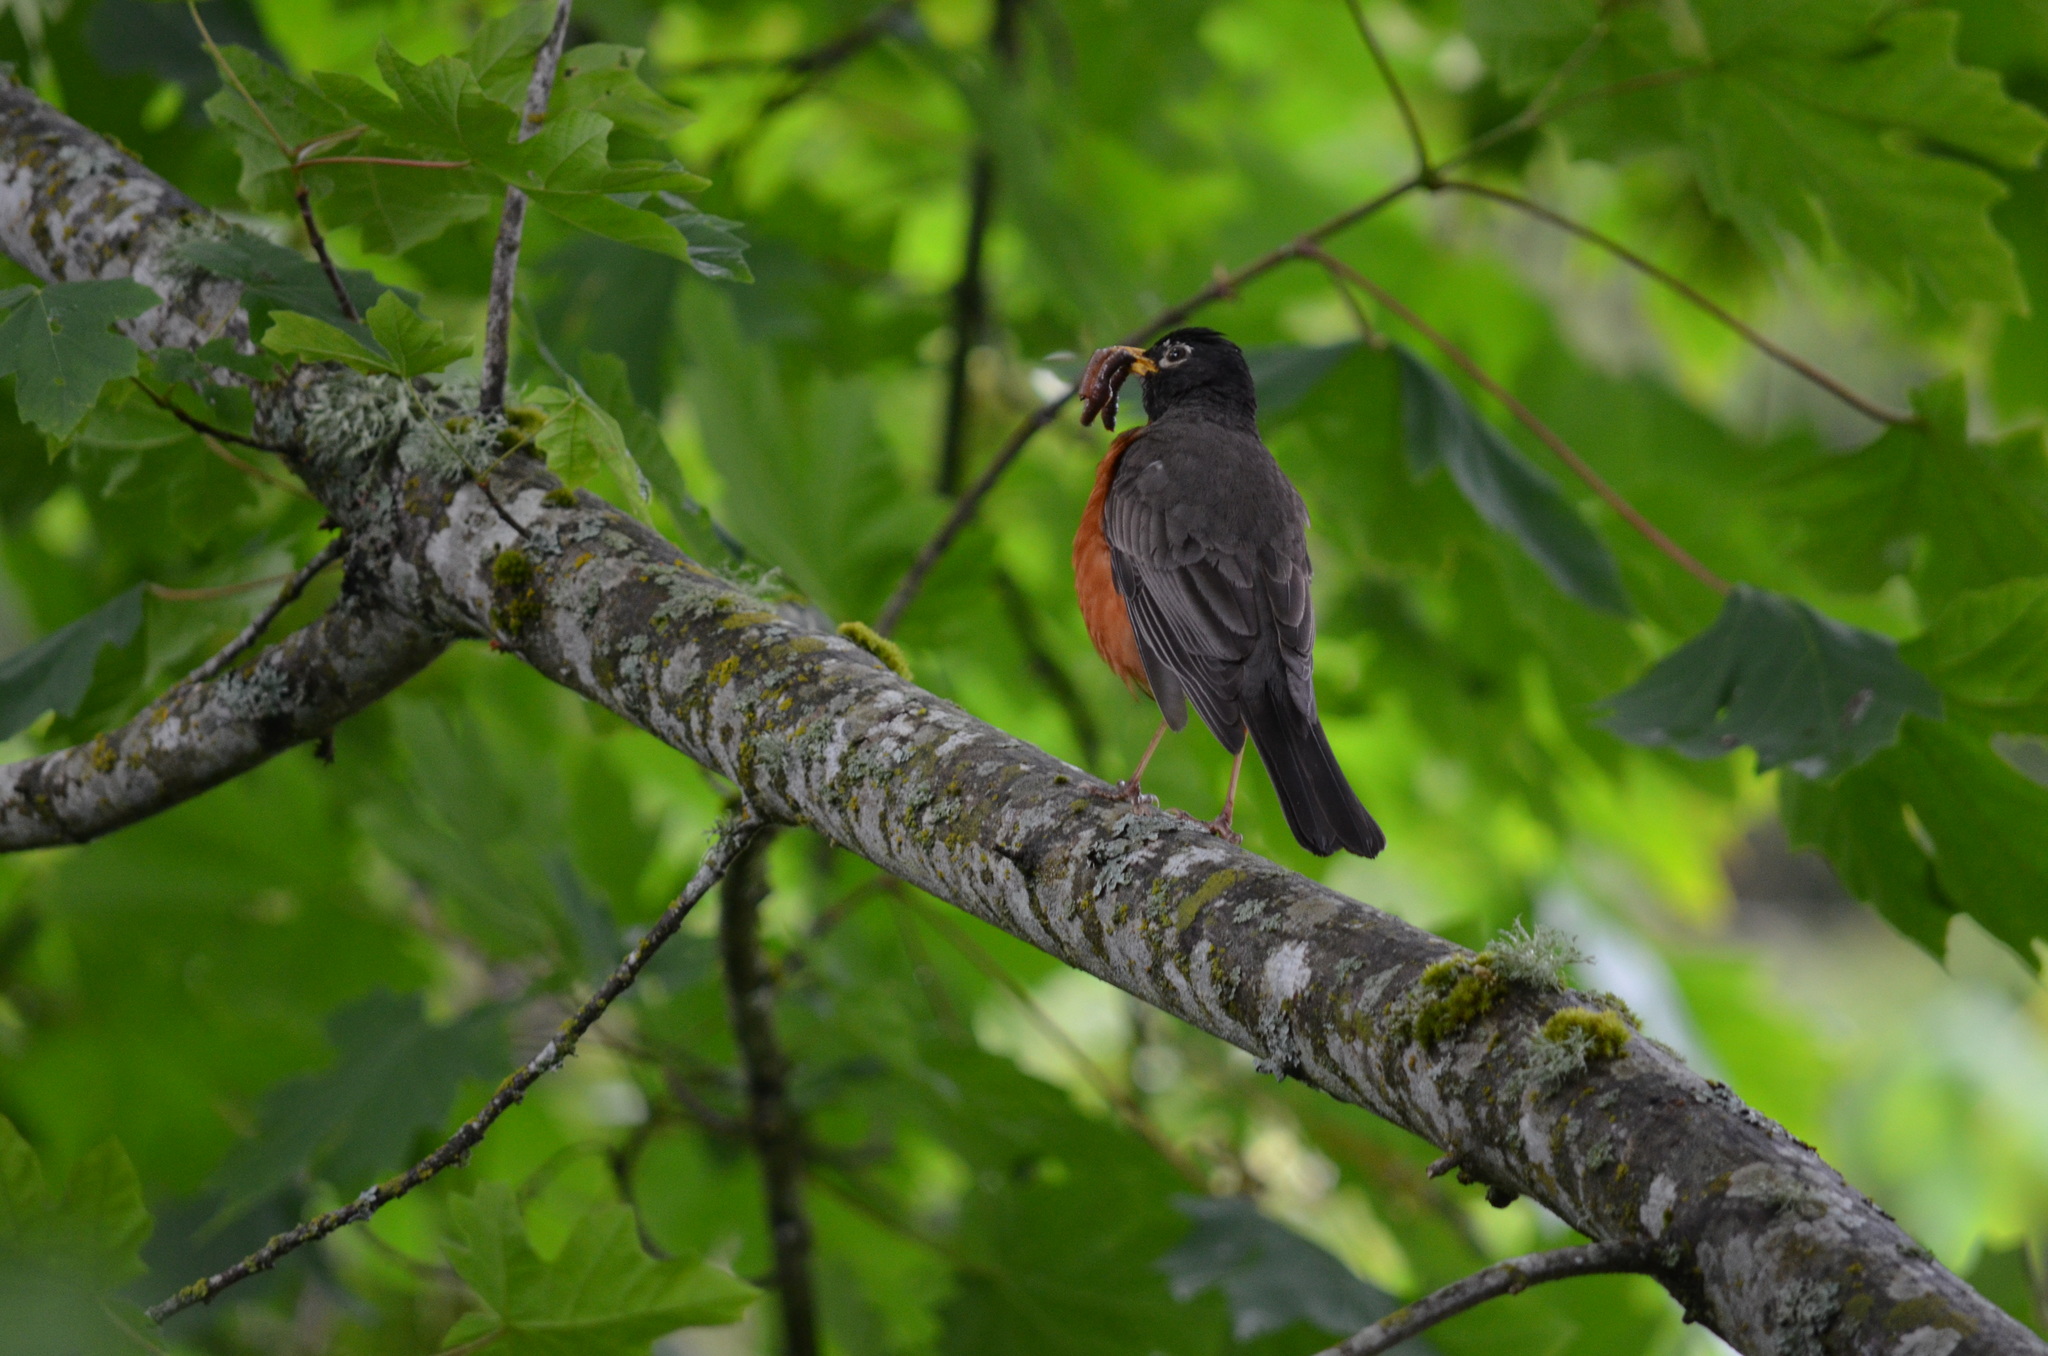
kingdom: Animalia
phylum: Chordata
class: Aves
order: Passeriformes
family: Turdidae
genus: Turdus
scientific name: Turdus migratorius
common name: American robin
